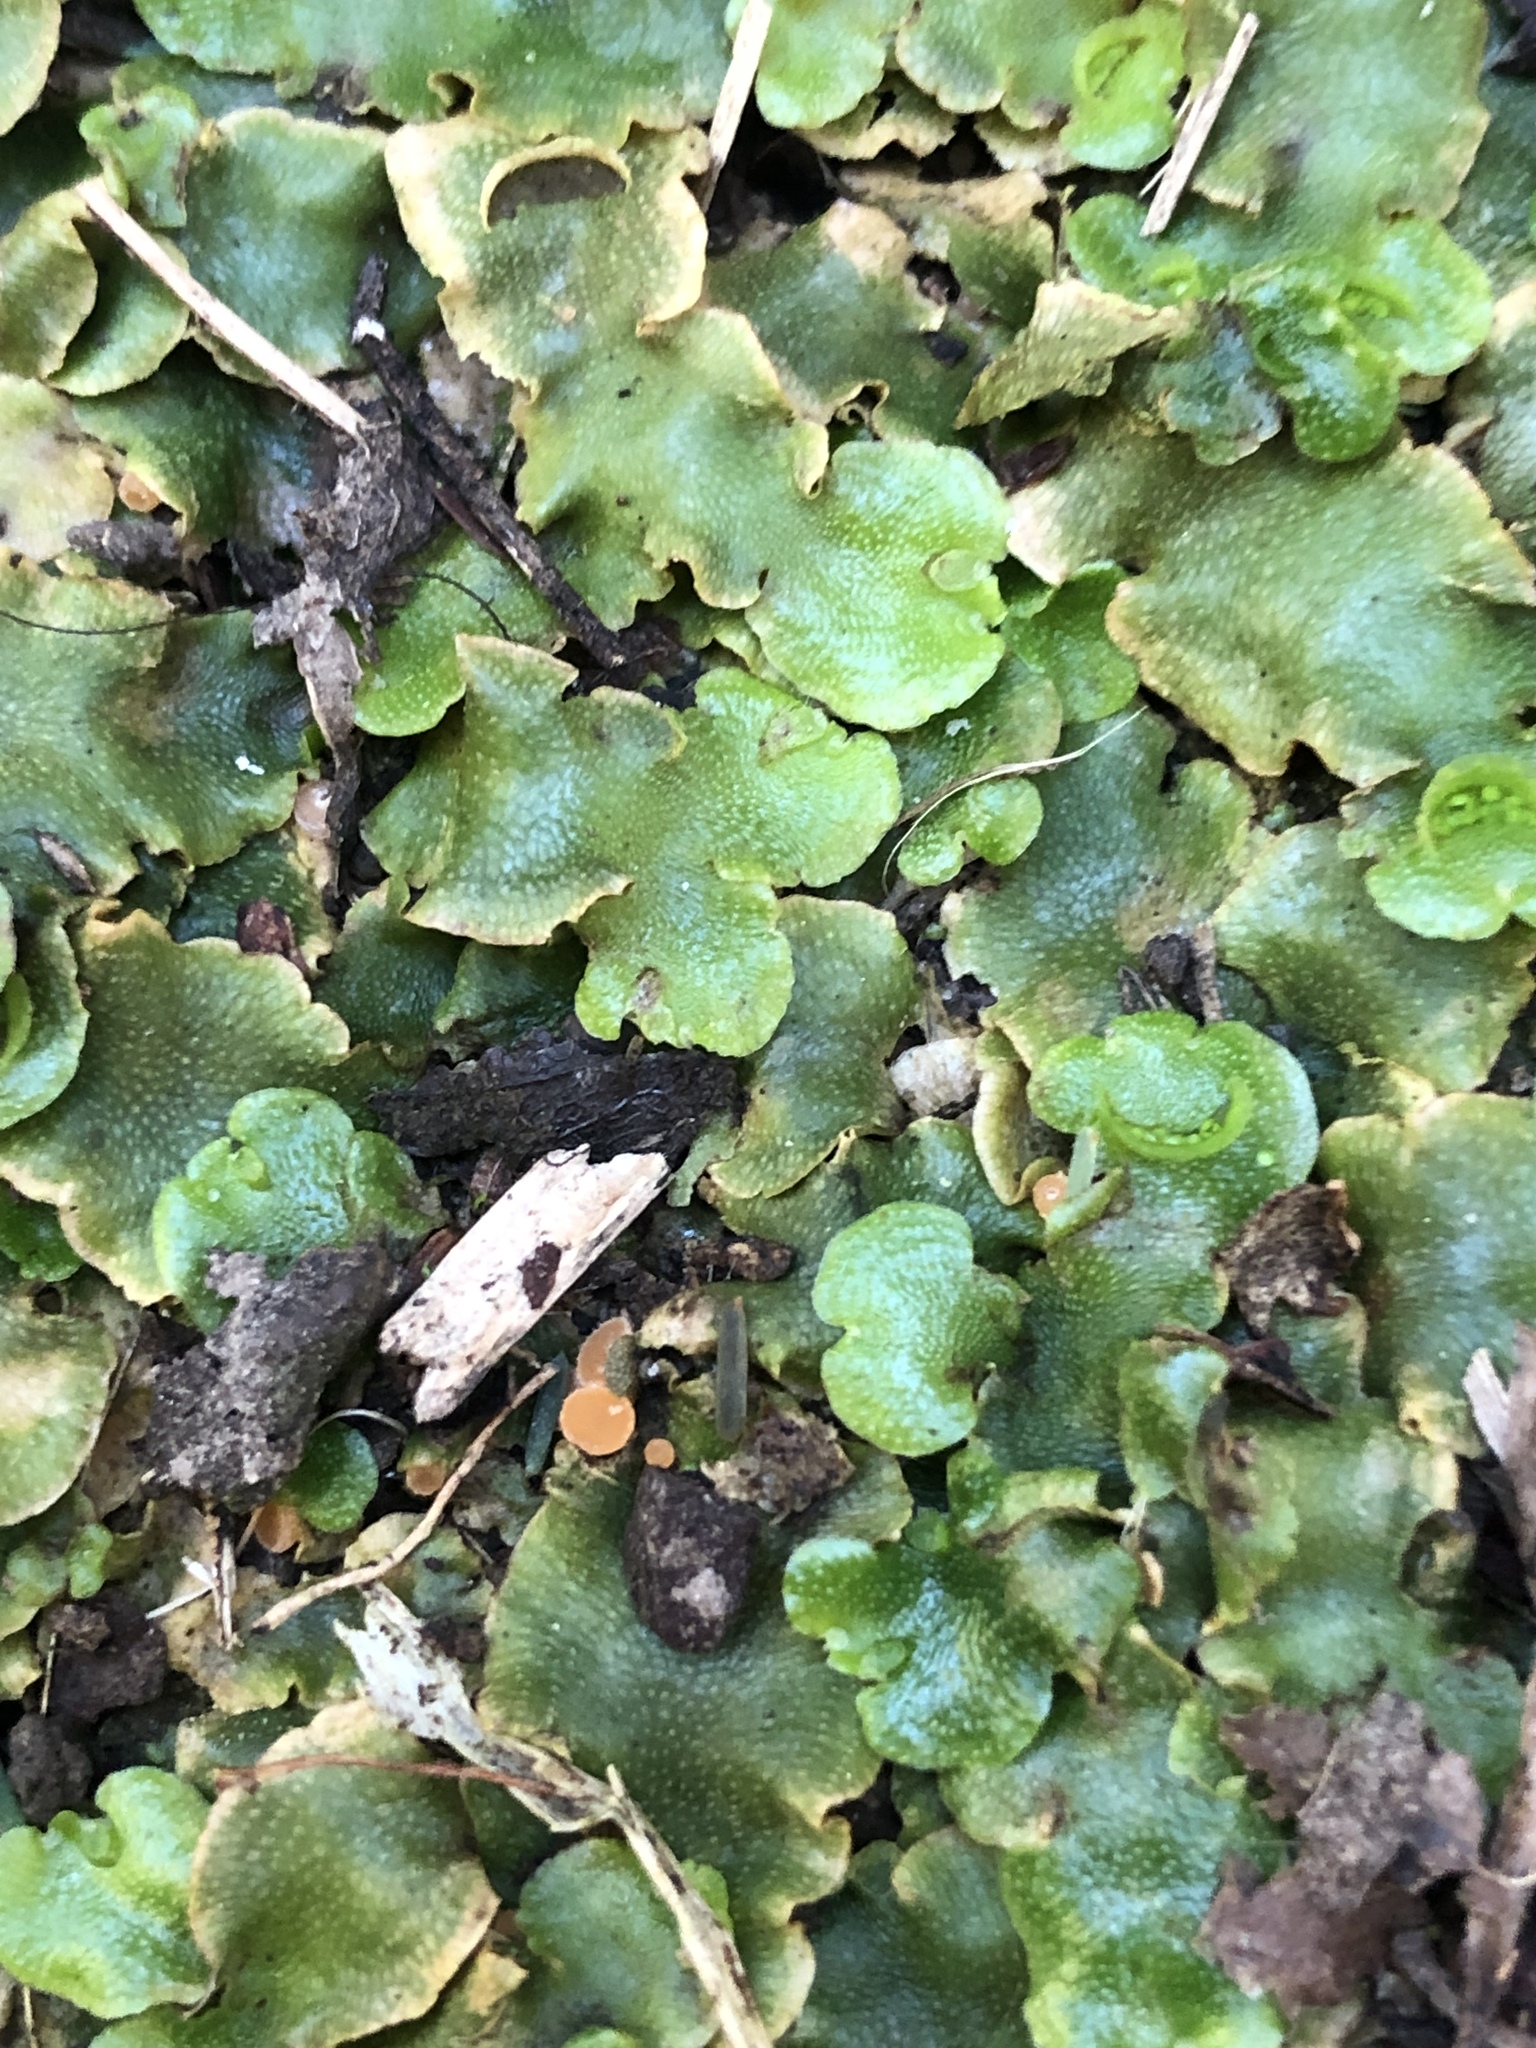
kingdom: Plantae
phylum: Marchantiophyta
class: Marchantiopsida
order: Lunulariales
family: Lunulariaceae
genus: Lunularia
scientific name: Lunularia cruciata
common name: Crescent-cup liverwort
